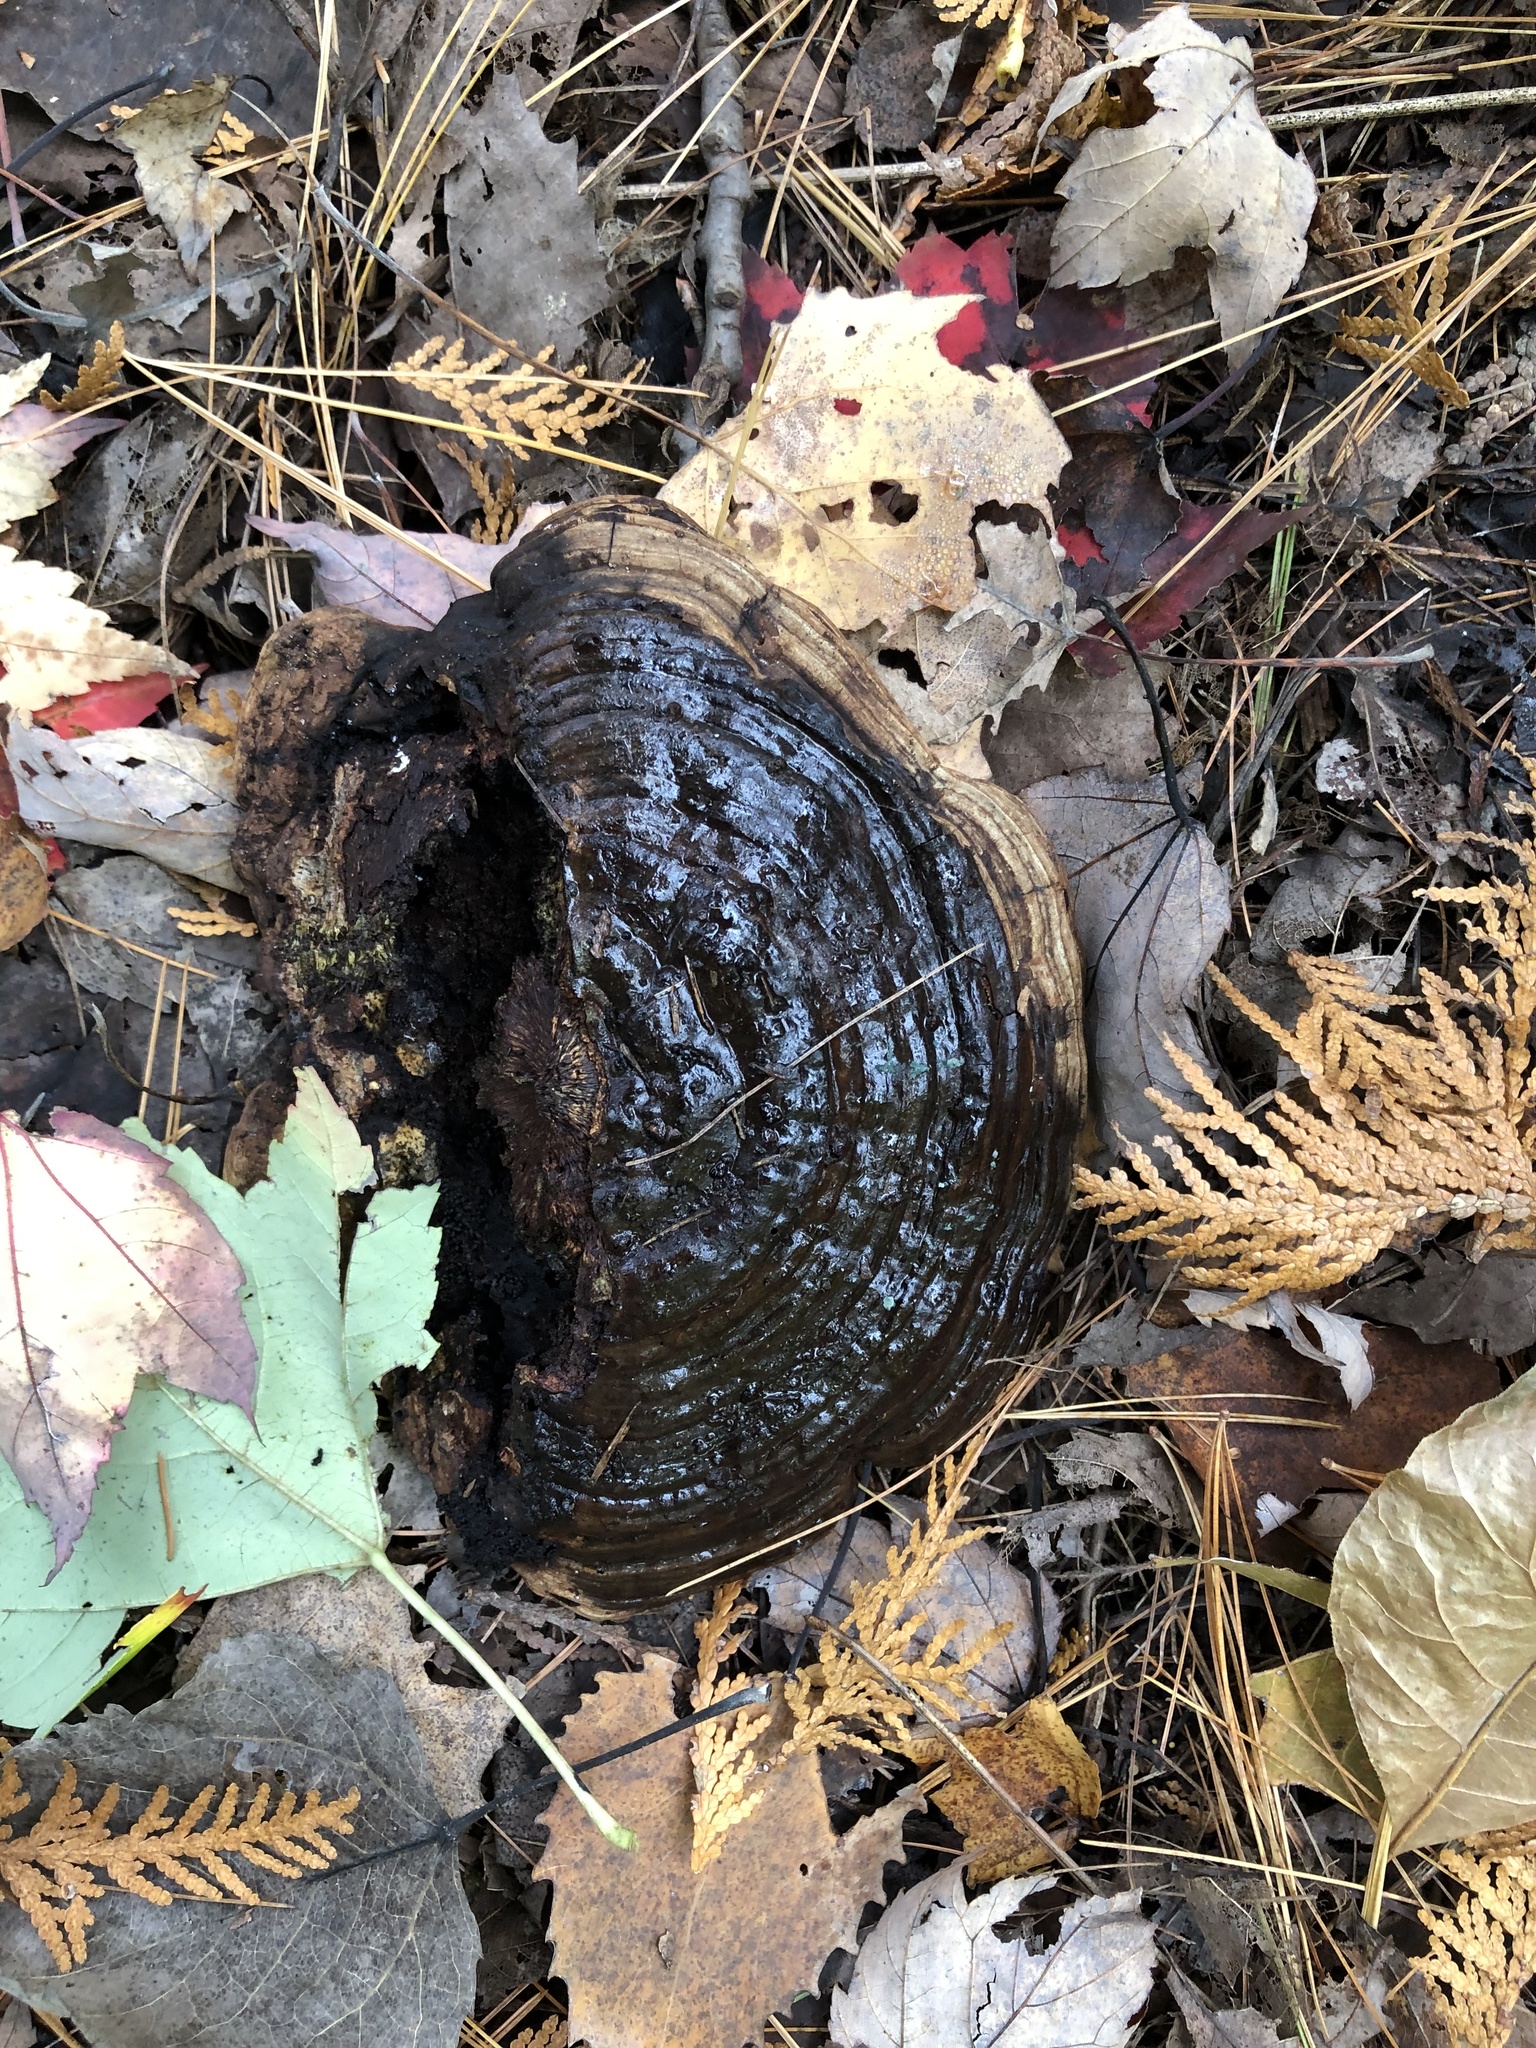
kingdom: Fungi
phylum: Basidiomycota
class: Agaricomycetes
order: Polyporales
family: Polyporaceae
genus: Ganoderma
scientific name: Ganoderma applanatum
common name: Artist's bracket
